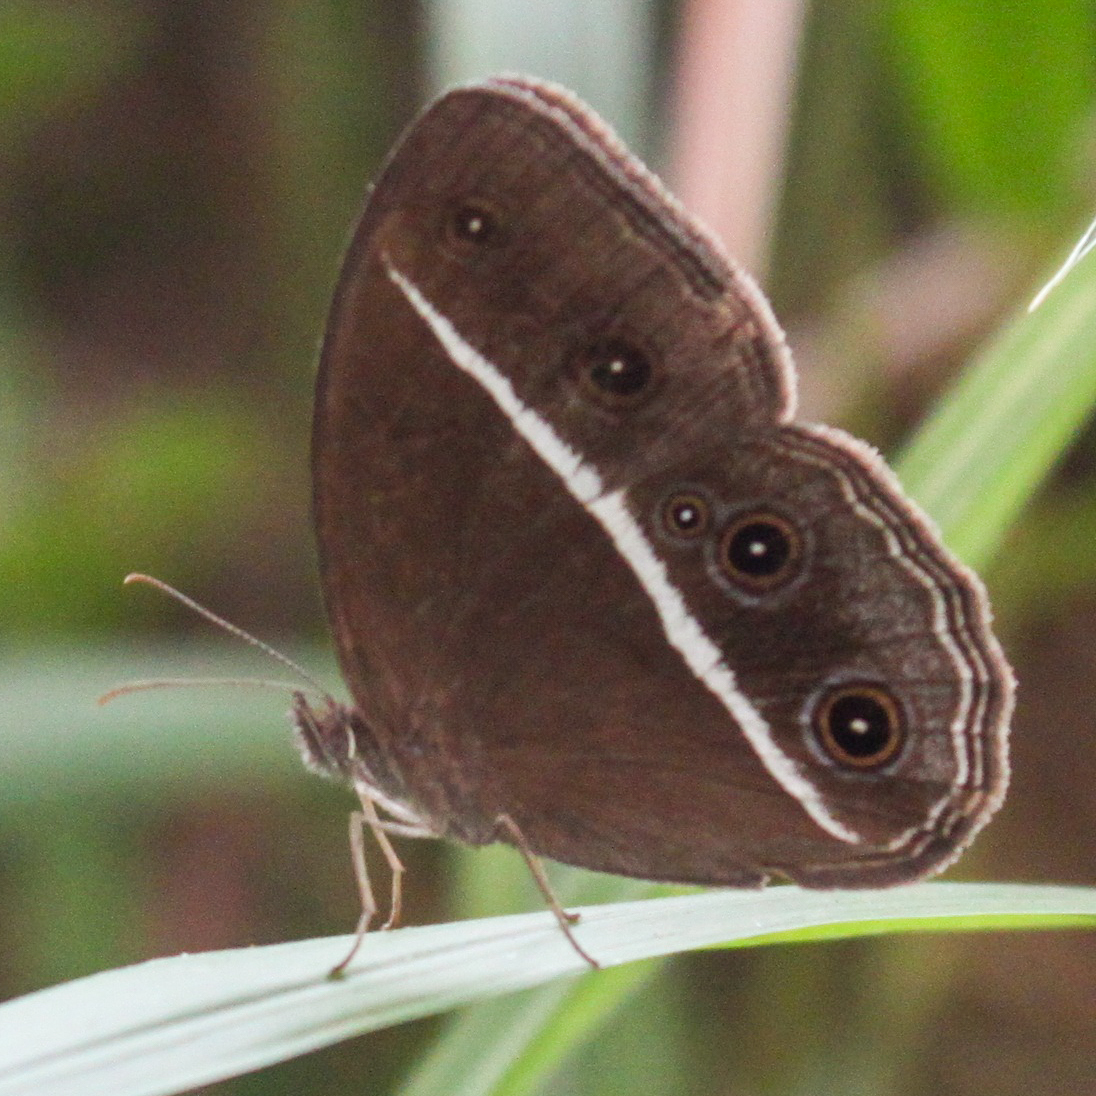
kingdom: Animalia
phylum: Arthropoda
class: Insecta
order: Lepidoptera
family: Nymphalidae
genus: Orsotriaena
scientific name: Orsotriaena medus
